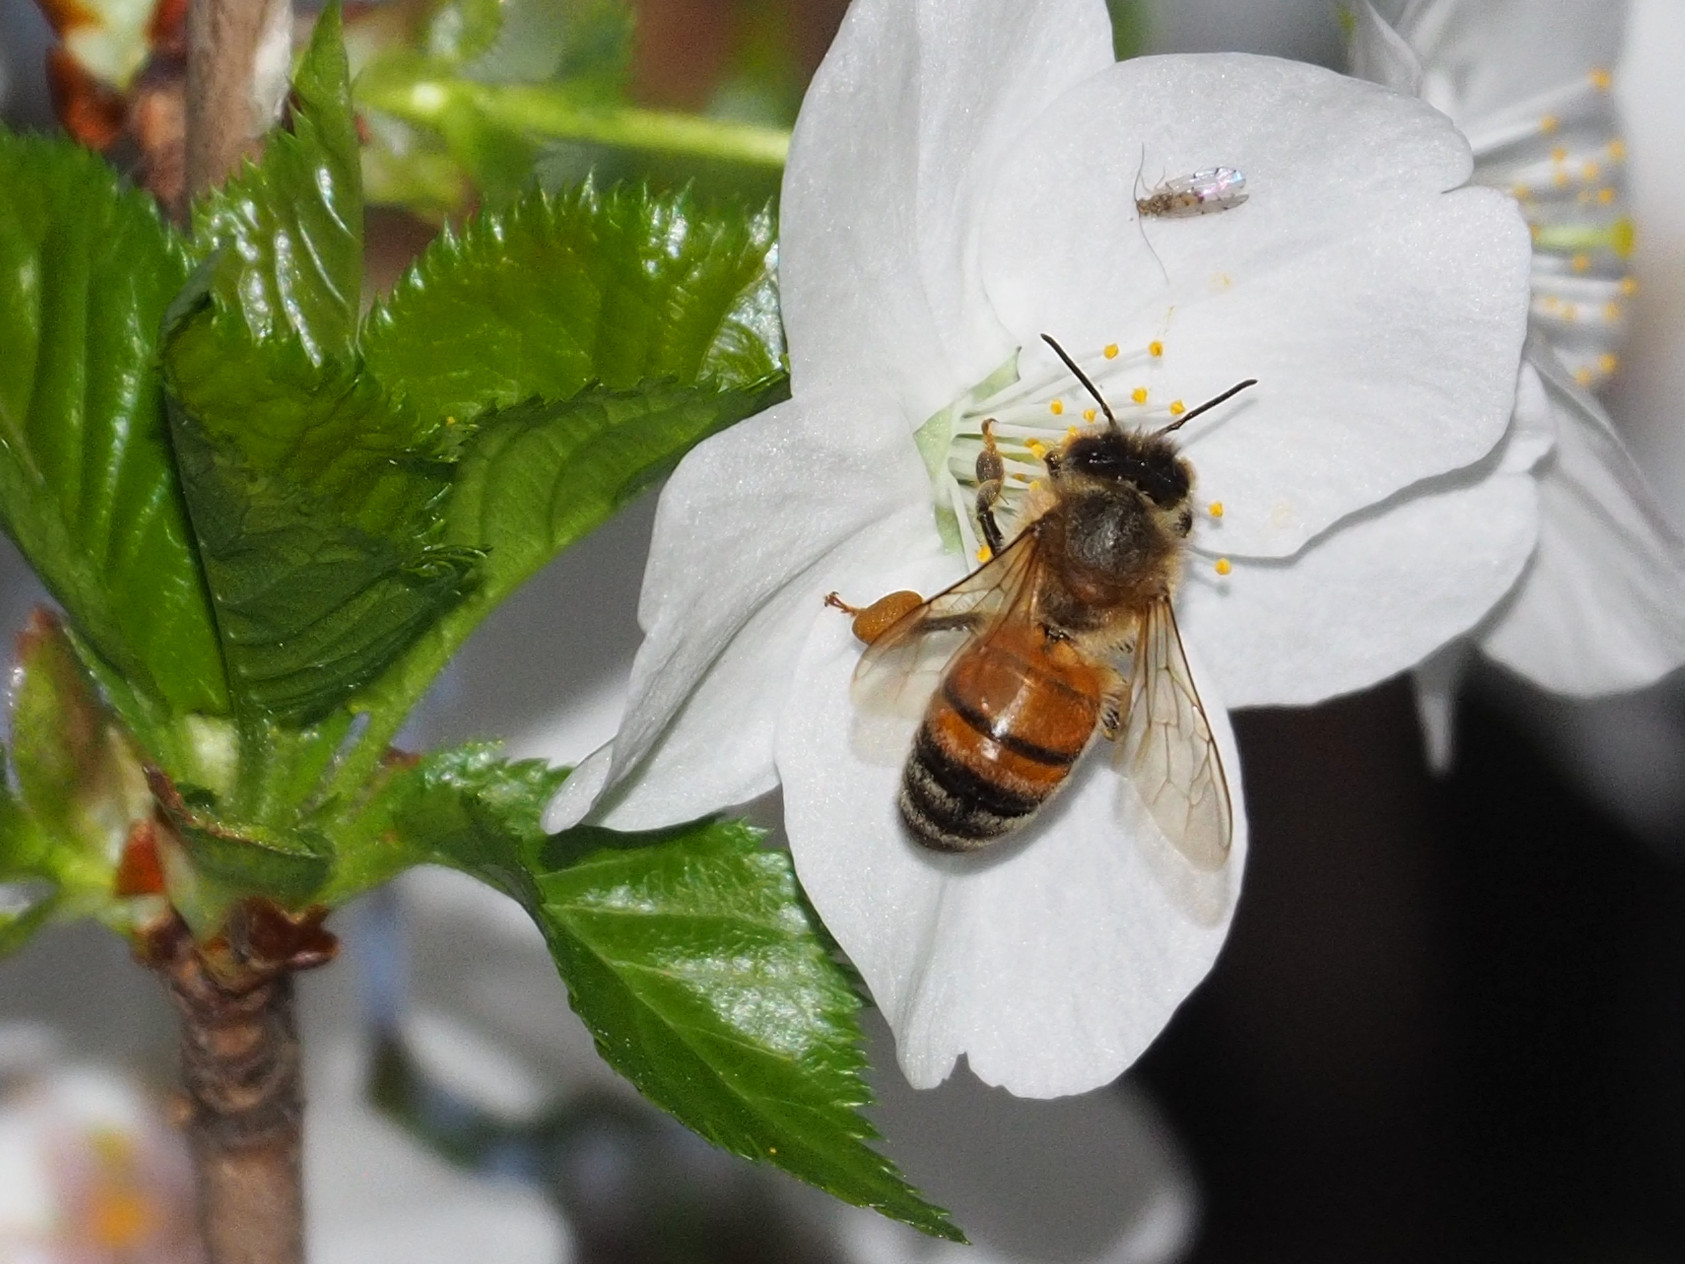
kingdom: Animalia
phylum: Arthropoda
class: Insecta
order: Hymenoptera
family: Apidae
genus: Apis
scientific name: Apis mellifera
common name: Honey bee
